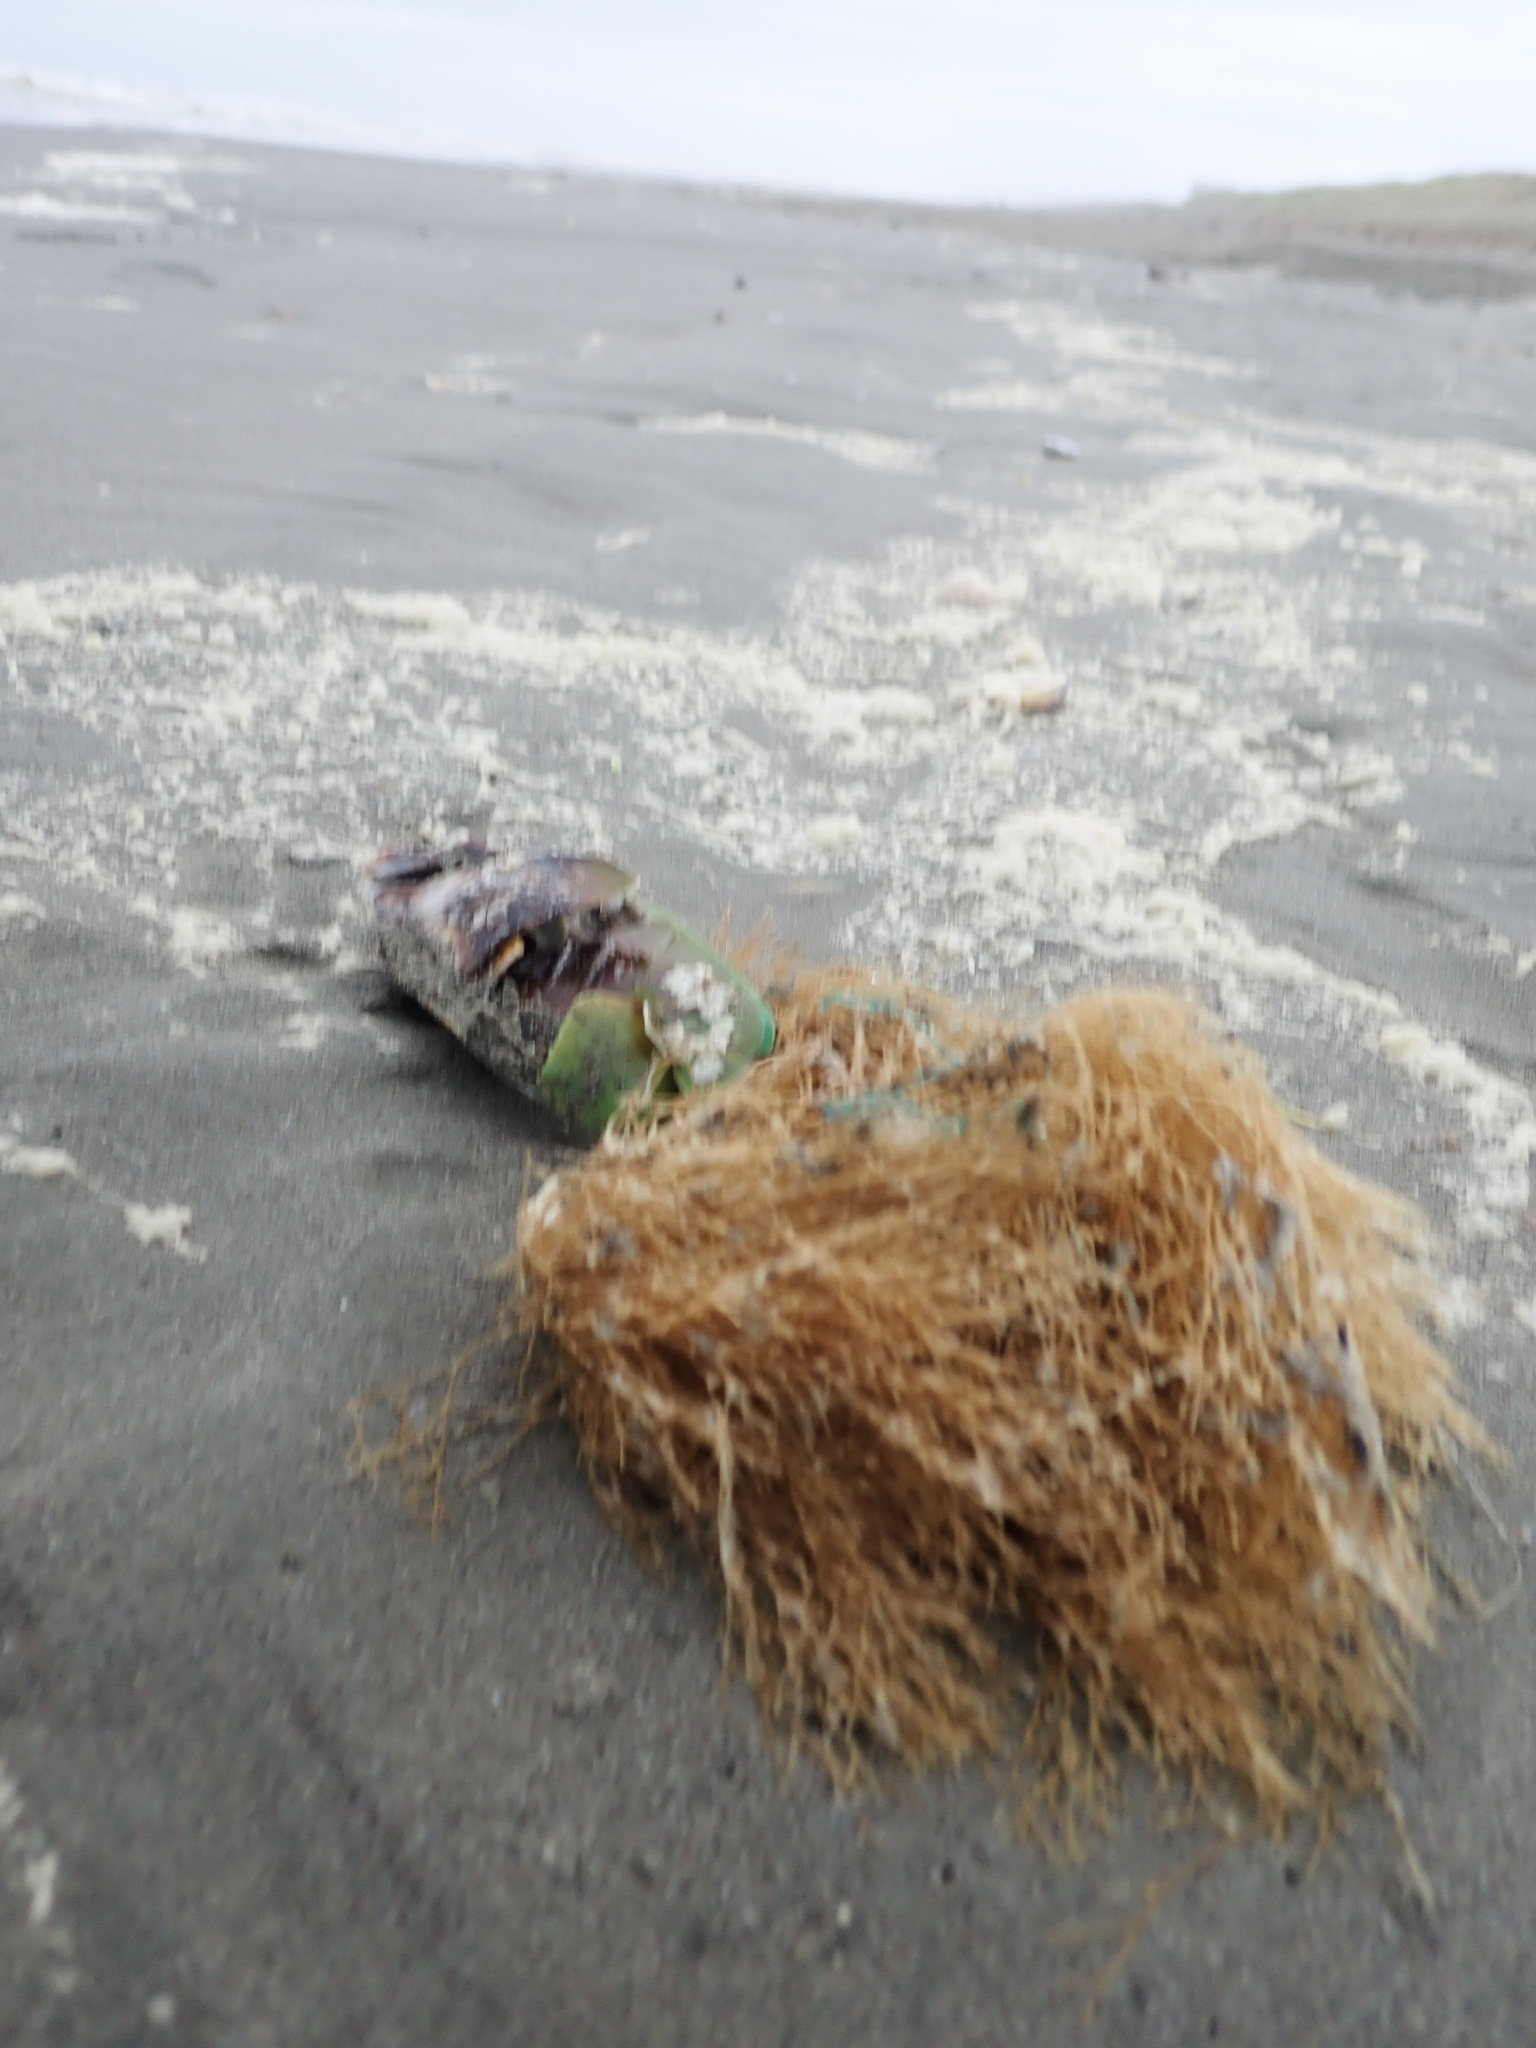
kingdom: Animalia
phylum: Cnidaria
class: Hydrozoa
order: Leptothecata
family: Sertulariidae
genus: Amphisbetia
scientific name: Amphisbetia bispinosa
